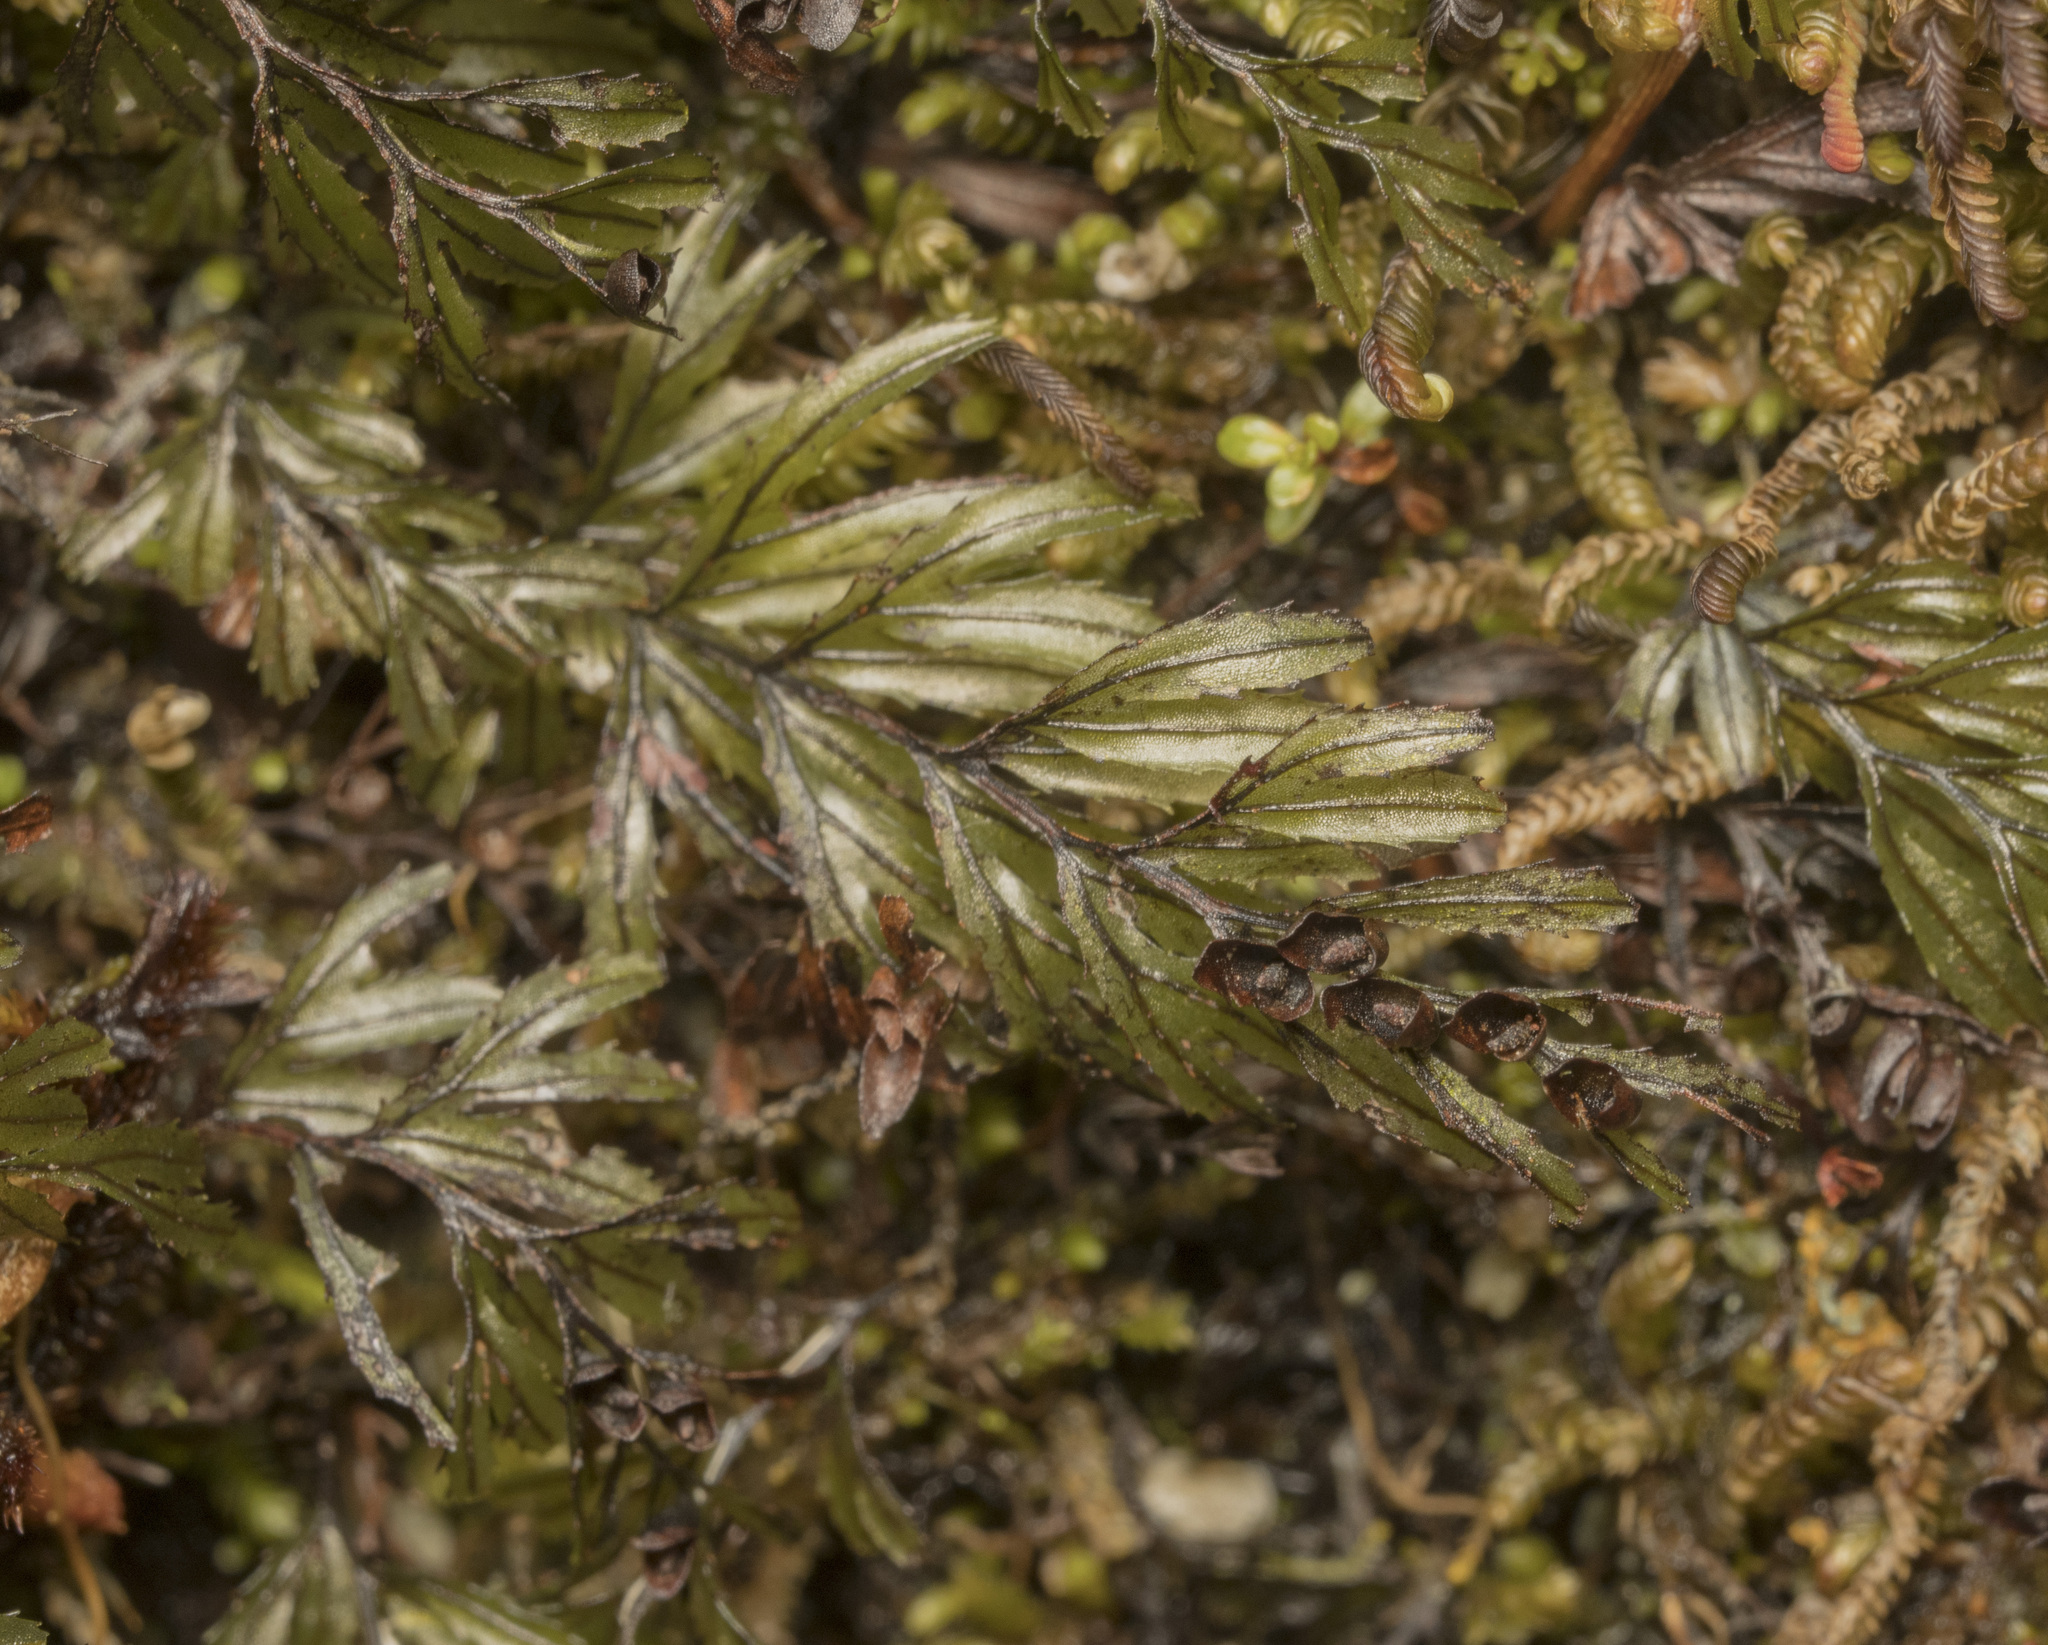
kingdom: Plantae
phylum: Tracheophyta
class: Polypodiopsida
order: Hymenophyllales
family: Hymenophyllaceae
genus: Hymenophyllum
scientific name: Hymenophyllum falklandicum
